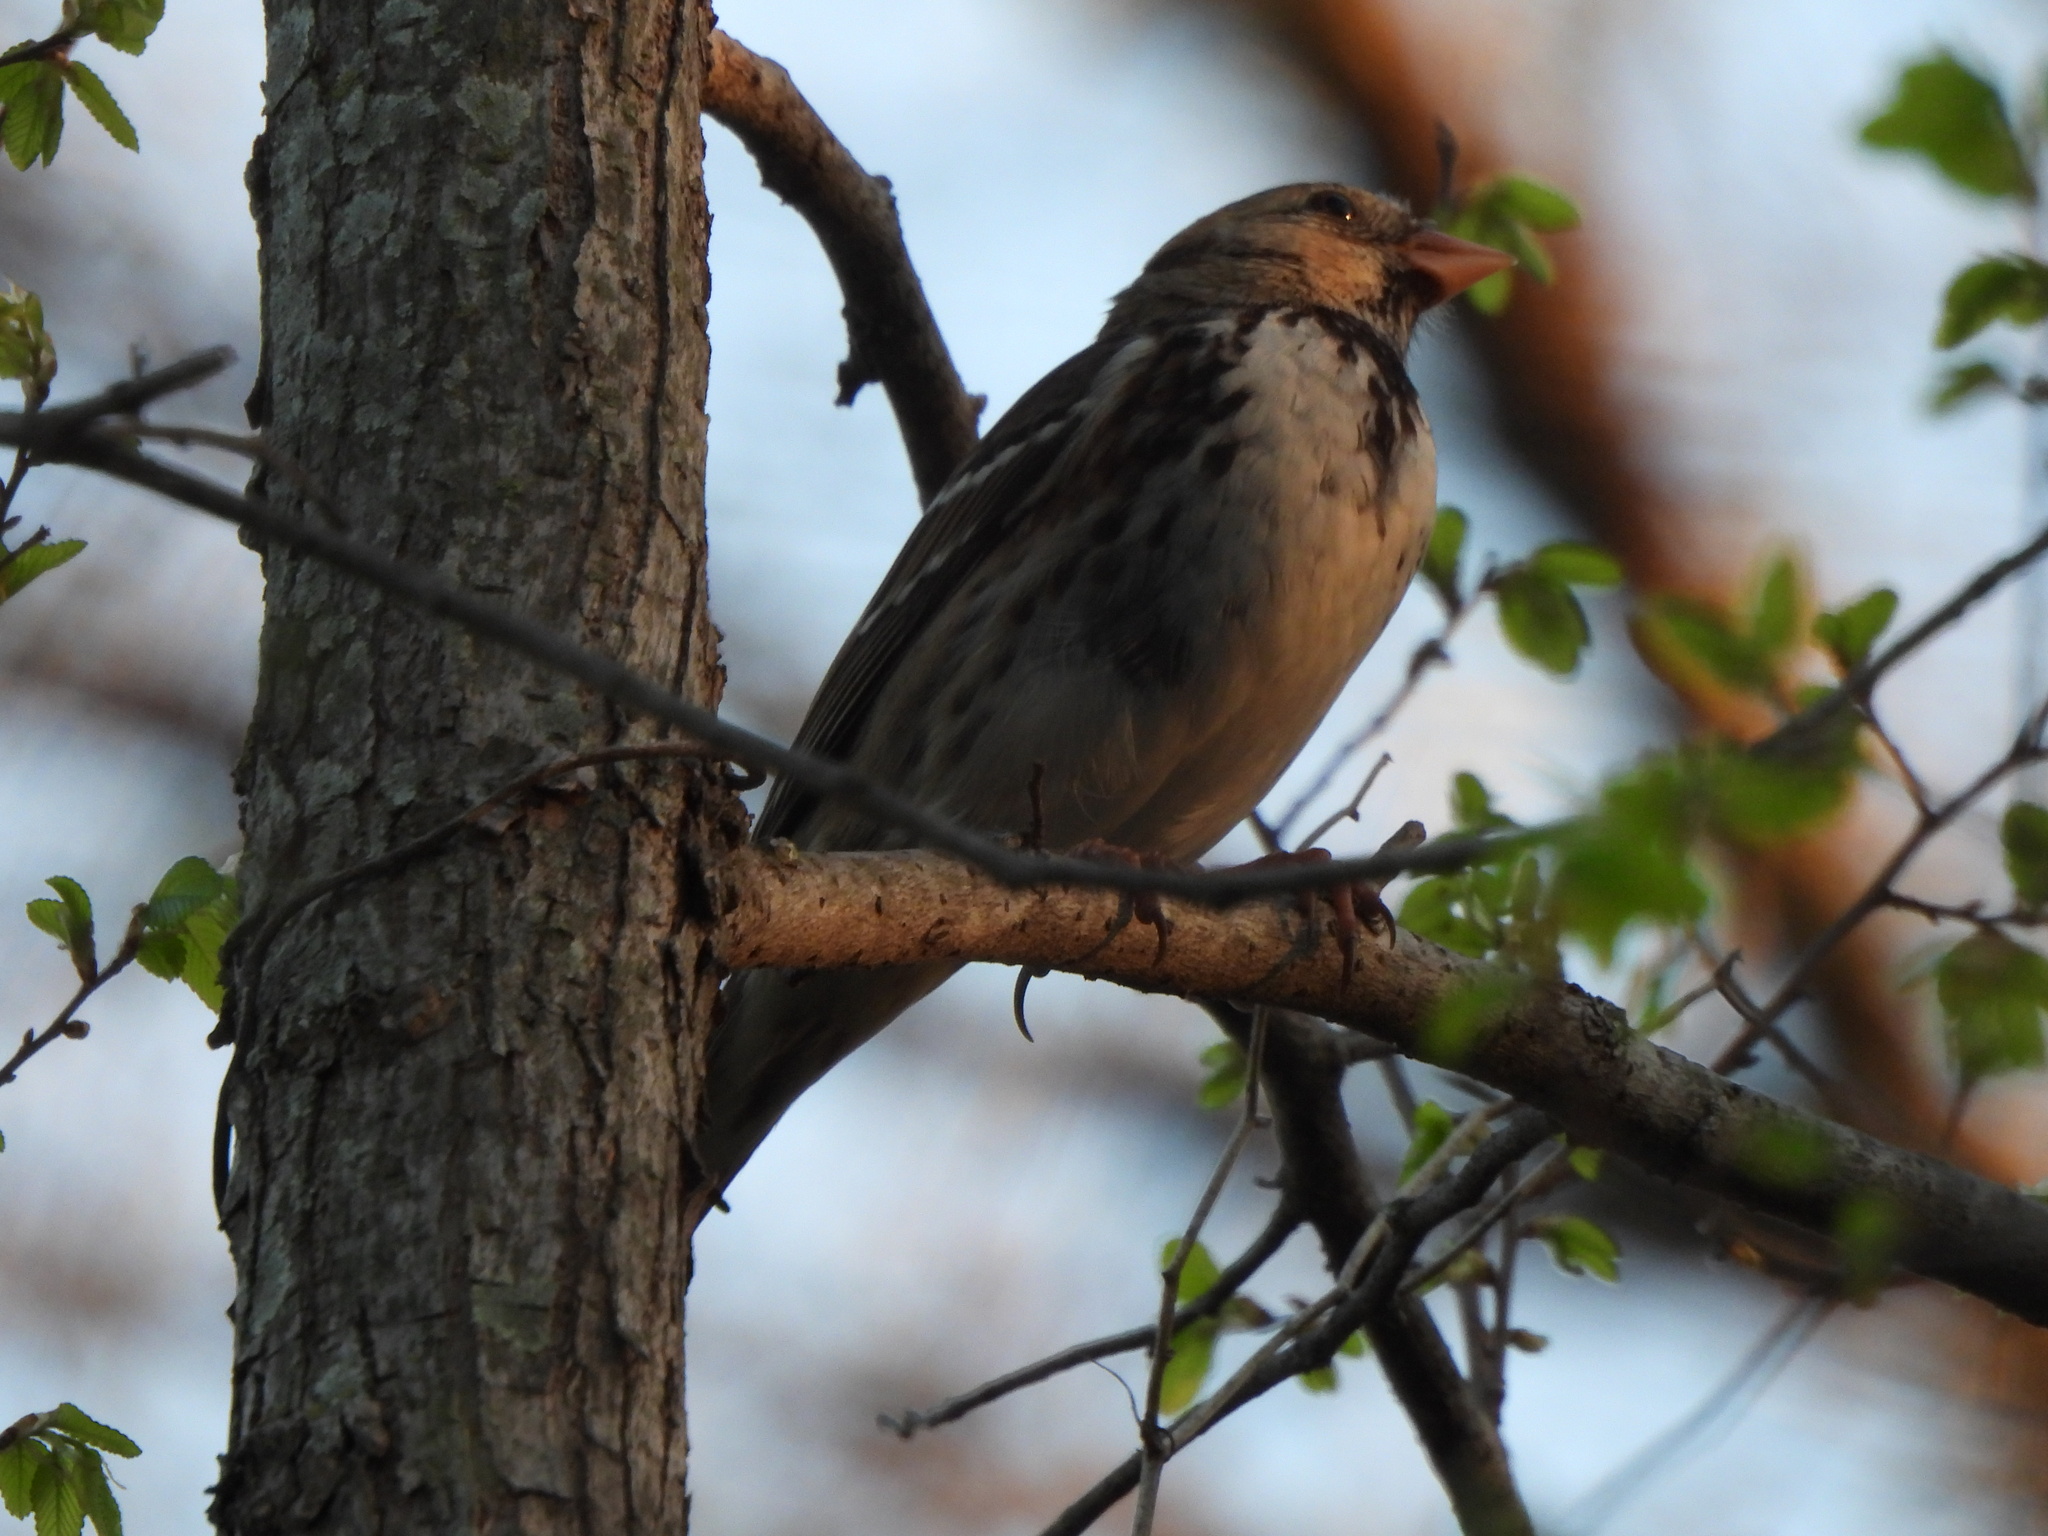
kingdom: Animalia
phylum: Chordata
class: Aves
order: Passeriformes
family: Passerellidae
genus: Zonotrichia
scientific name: Zonotrichia querula
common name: Harris's sparrow
